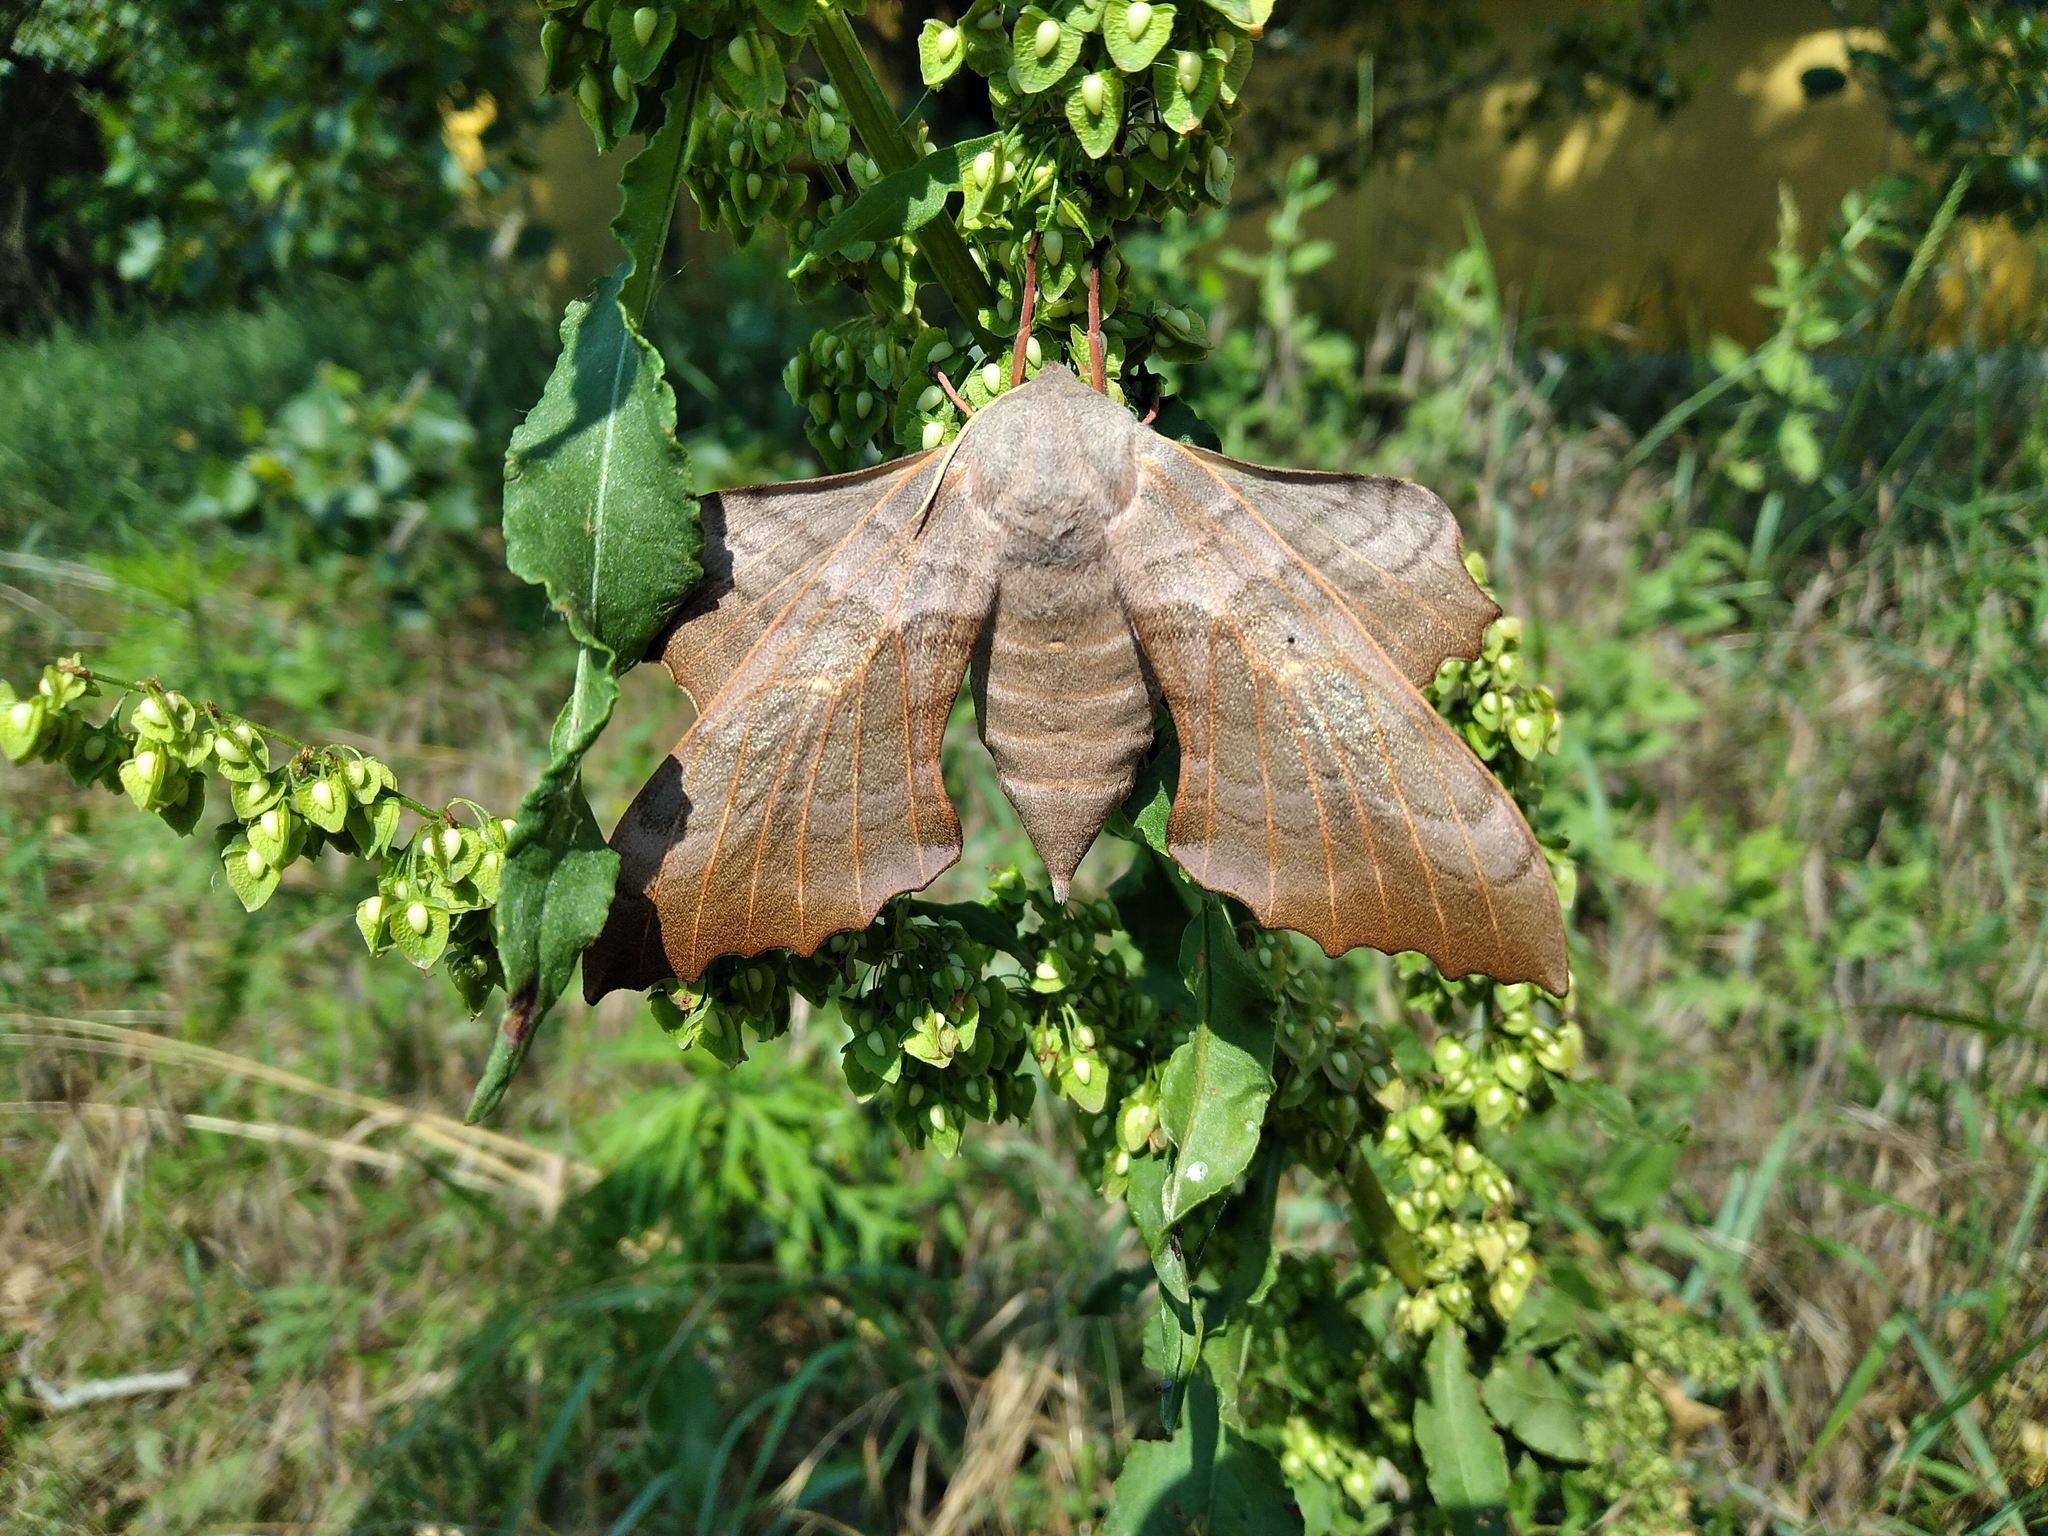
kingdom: Animalia
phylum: Arthropoda
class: Insecta
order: Lepidoptera
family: Sphingidae
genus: Laothoe
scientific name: Laothoe populi
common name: Poplar hawk-moth
